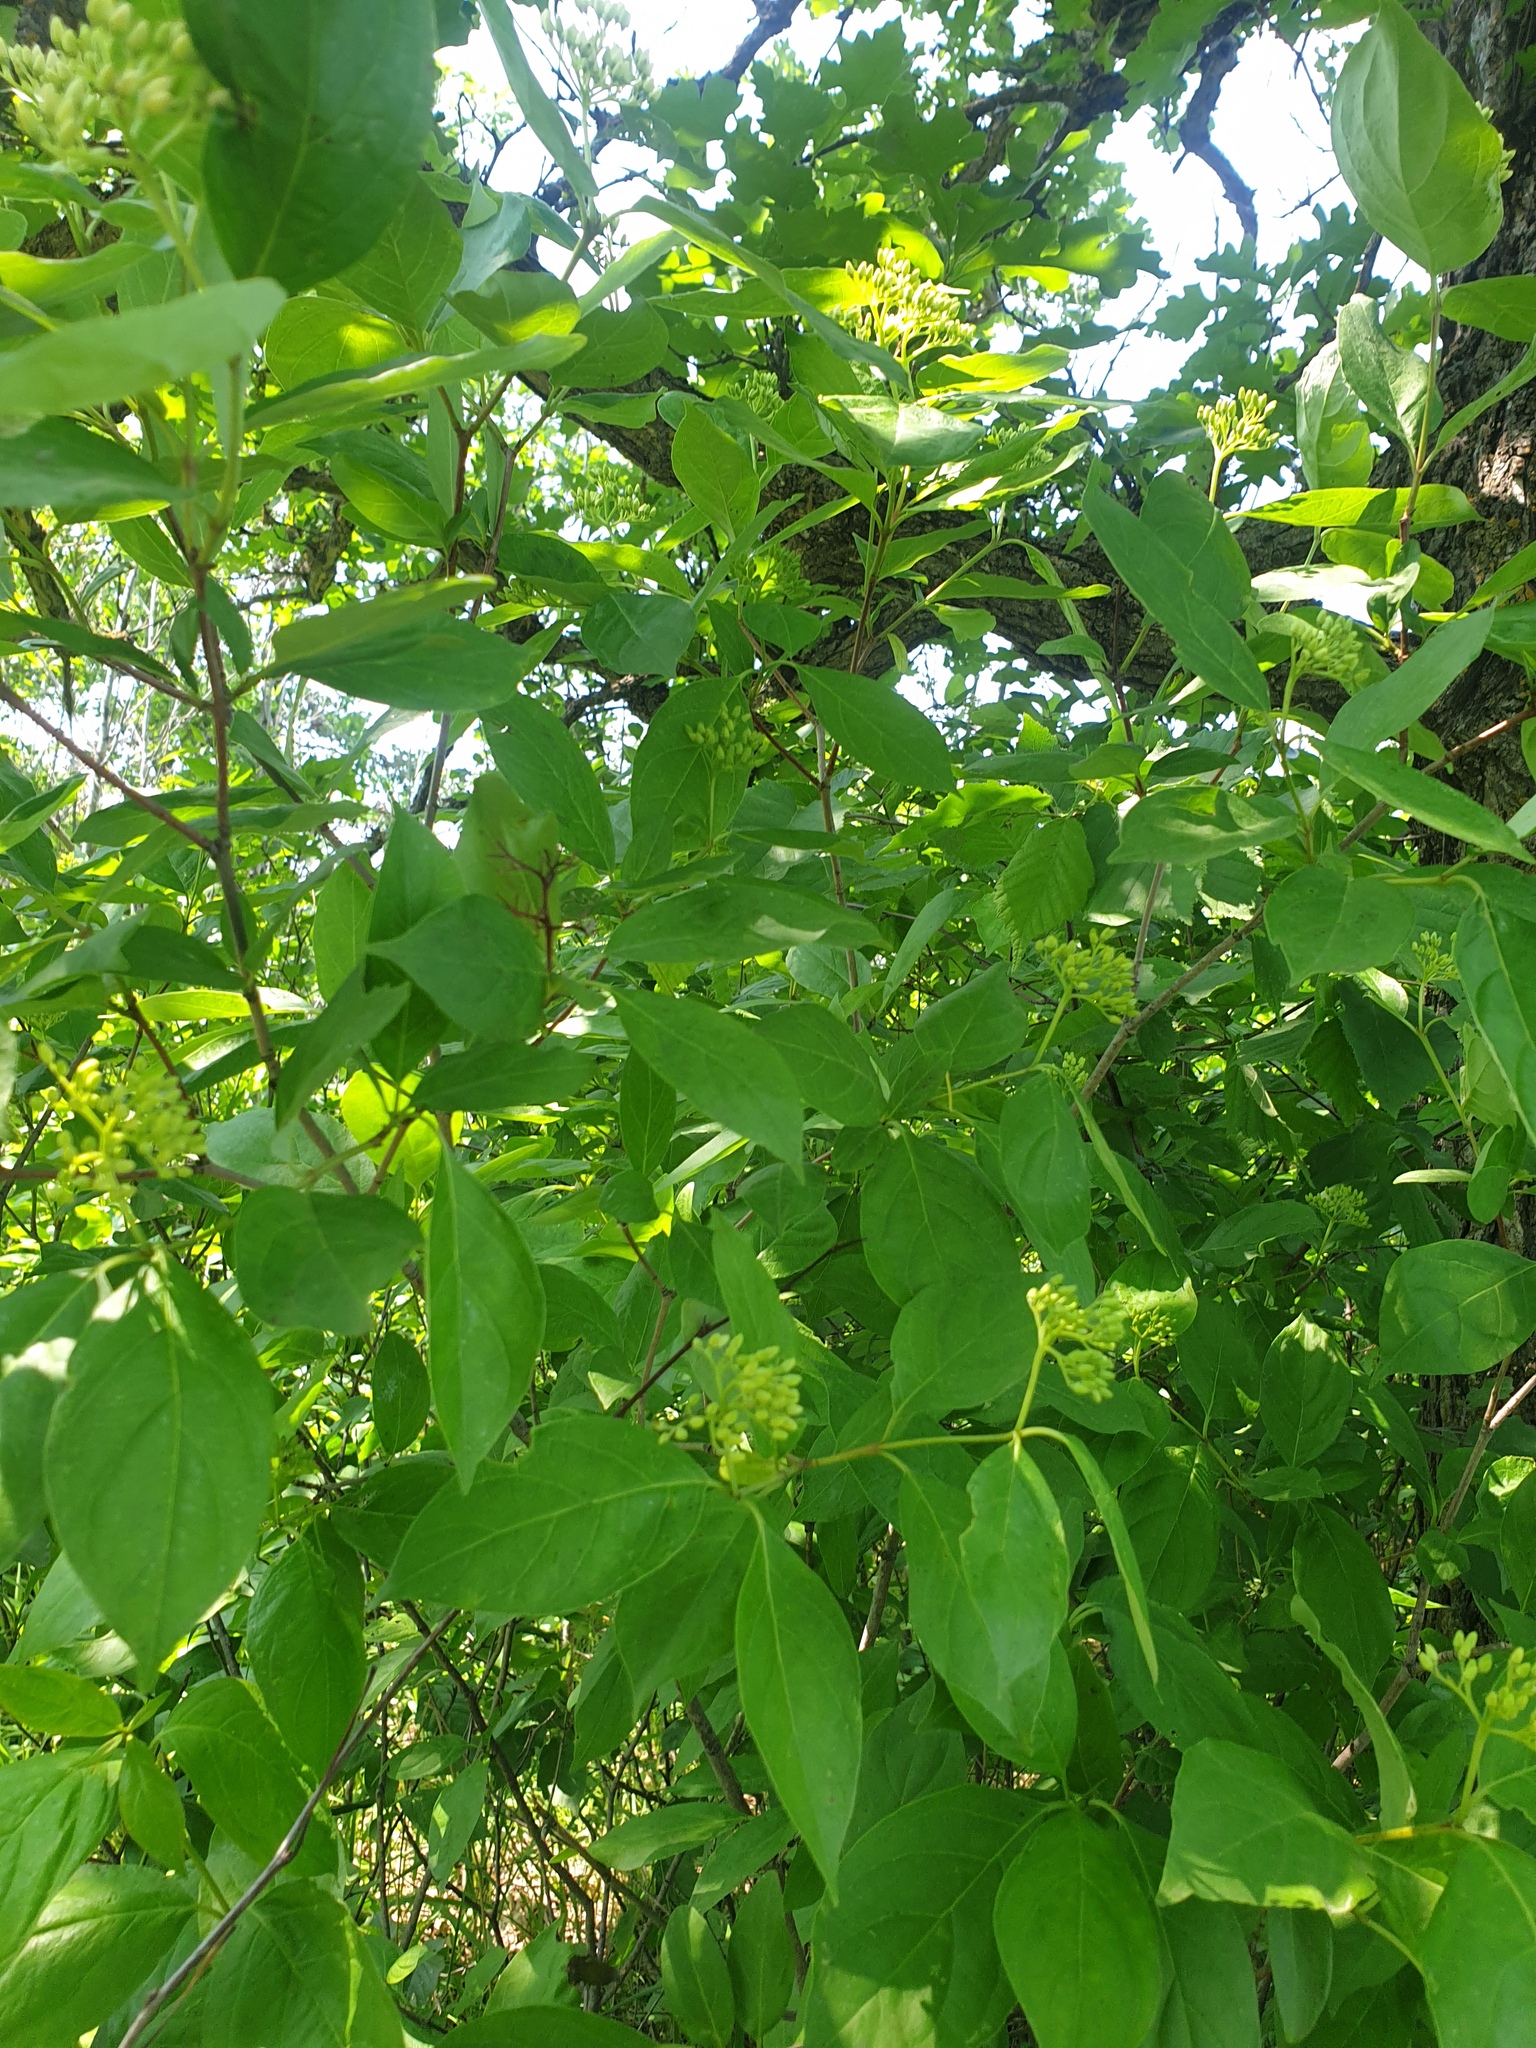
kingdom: Plantae
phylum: Tracheophyta
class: Magnoliopsida
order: Cornales
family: Cornaceae
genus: Cornus
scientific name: Cornus racemosa
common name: Panicled dogwood
